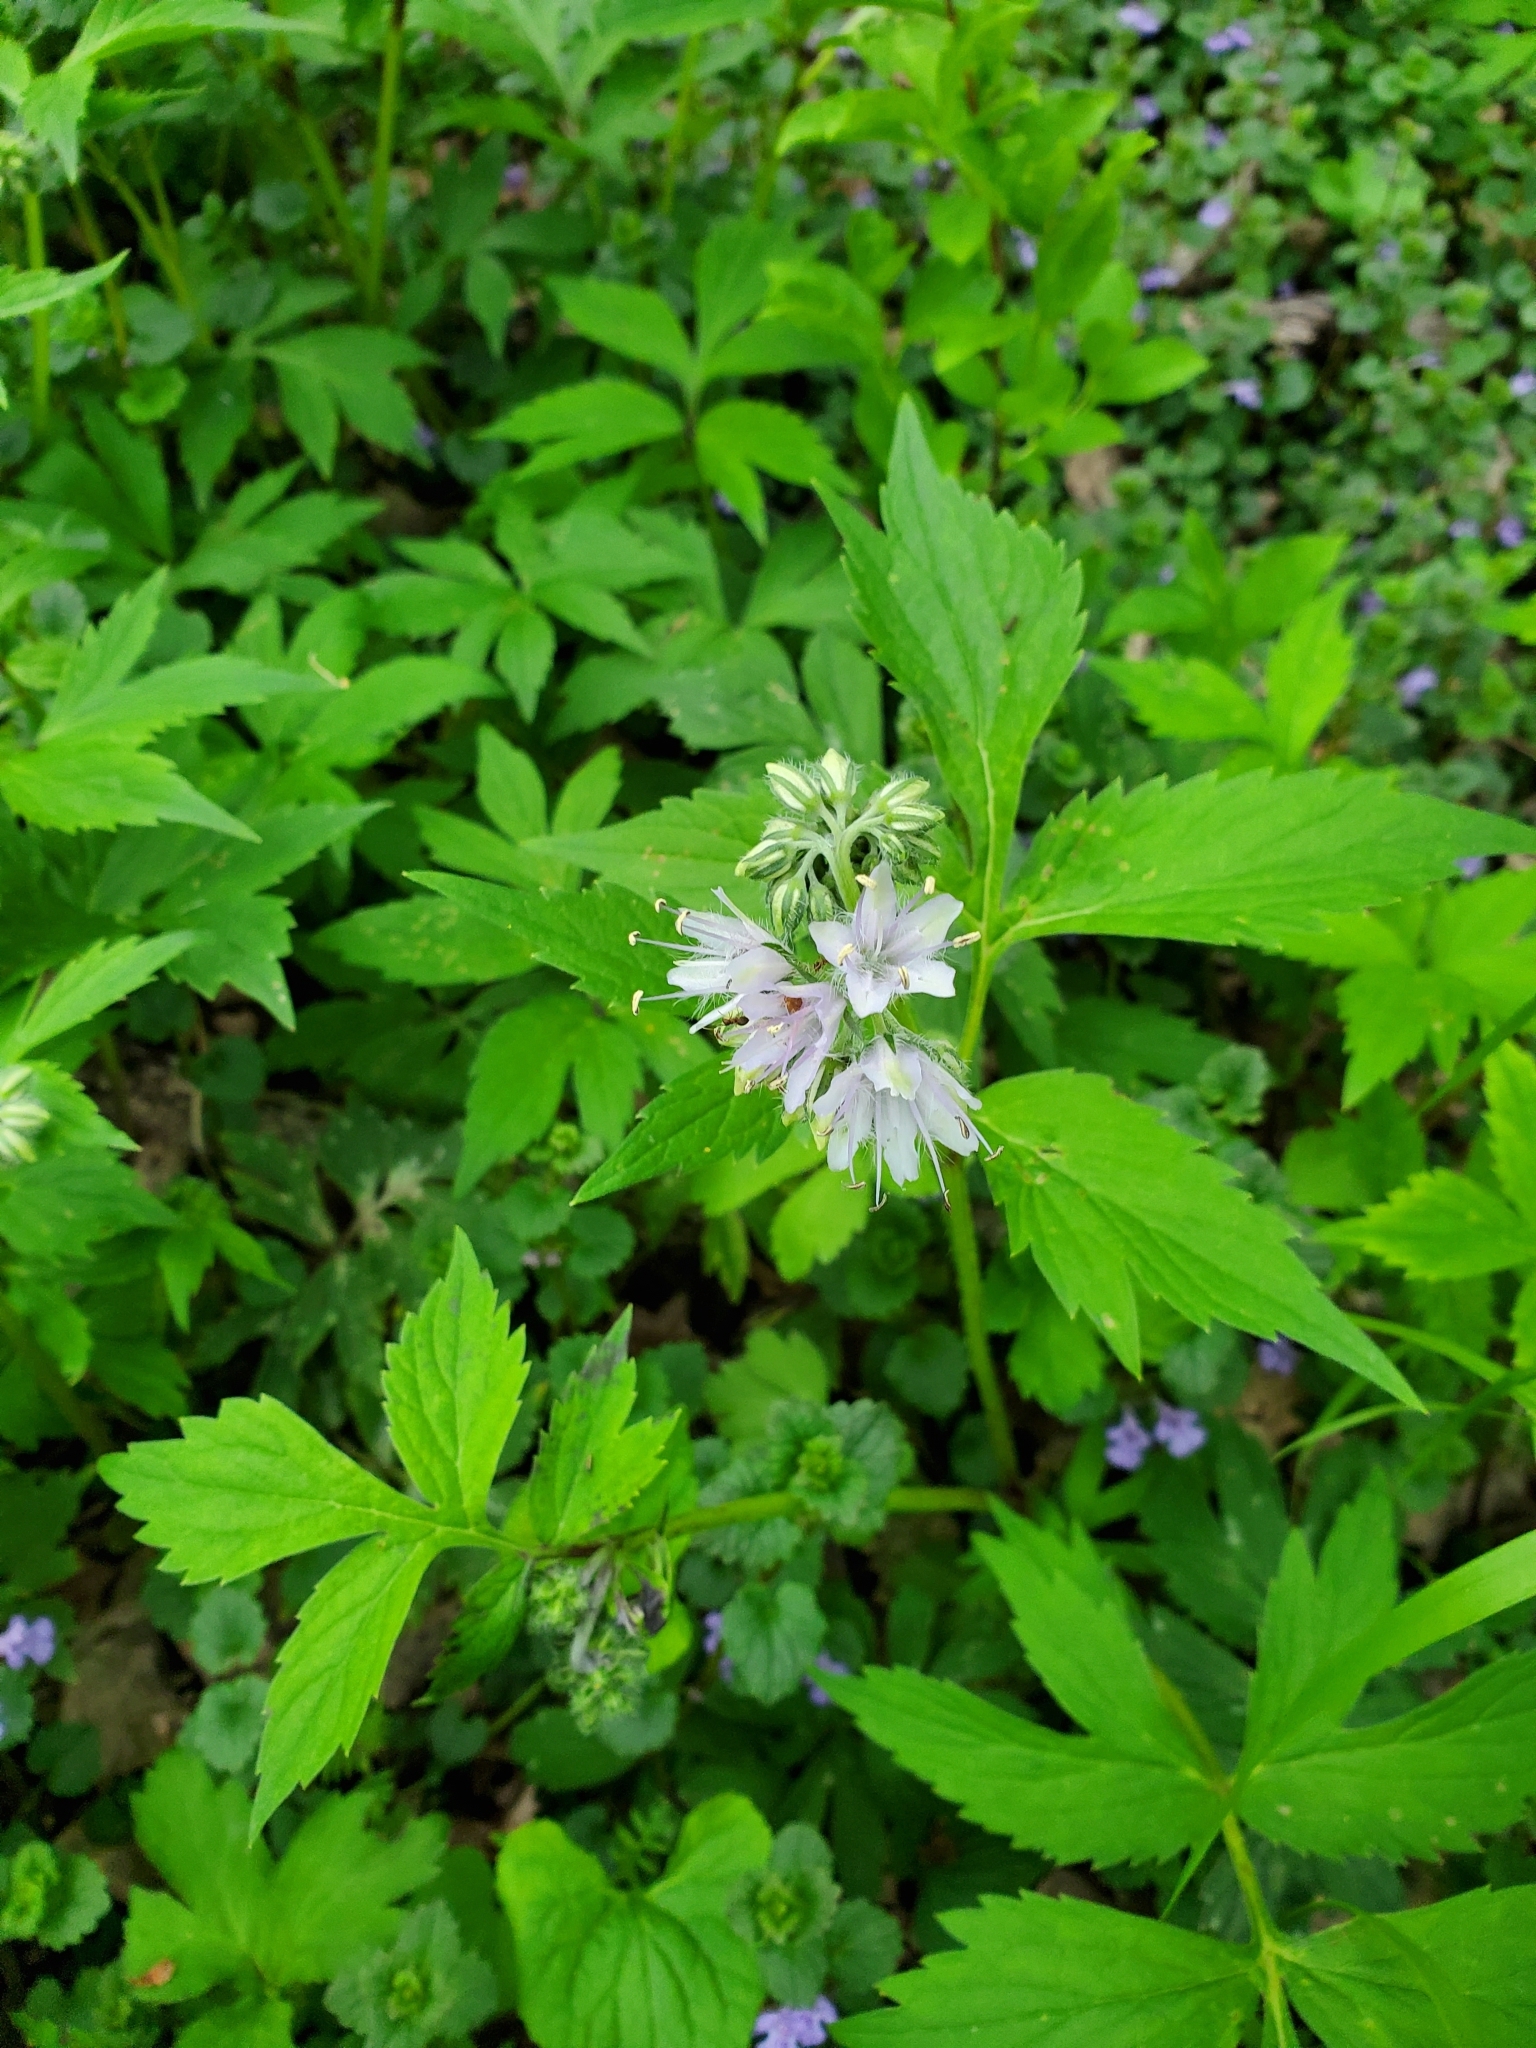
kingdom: Plantae
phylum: Tracheophyta
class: Magnoliopsida
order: Boraginales
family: Hydrophyllaceae
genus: Hydrophyllum
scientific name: Hydrophyllum virginianum
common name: Virginia waterleaf
